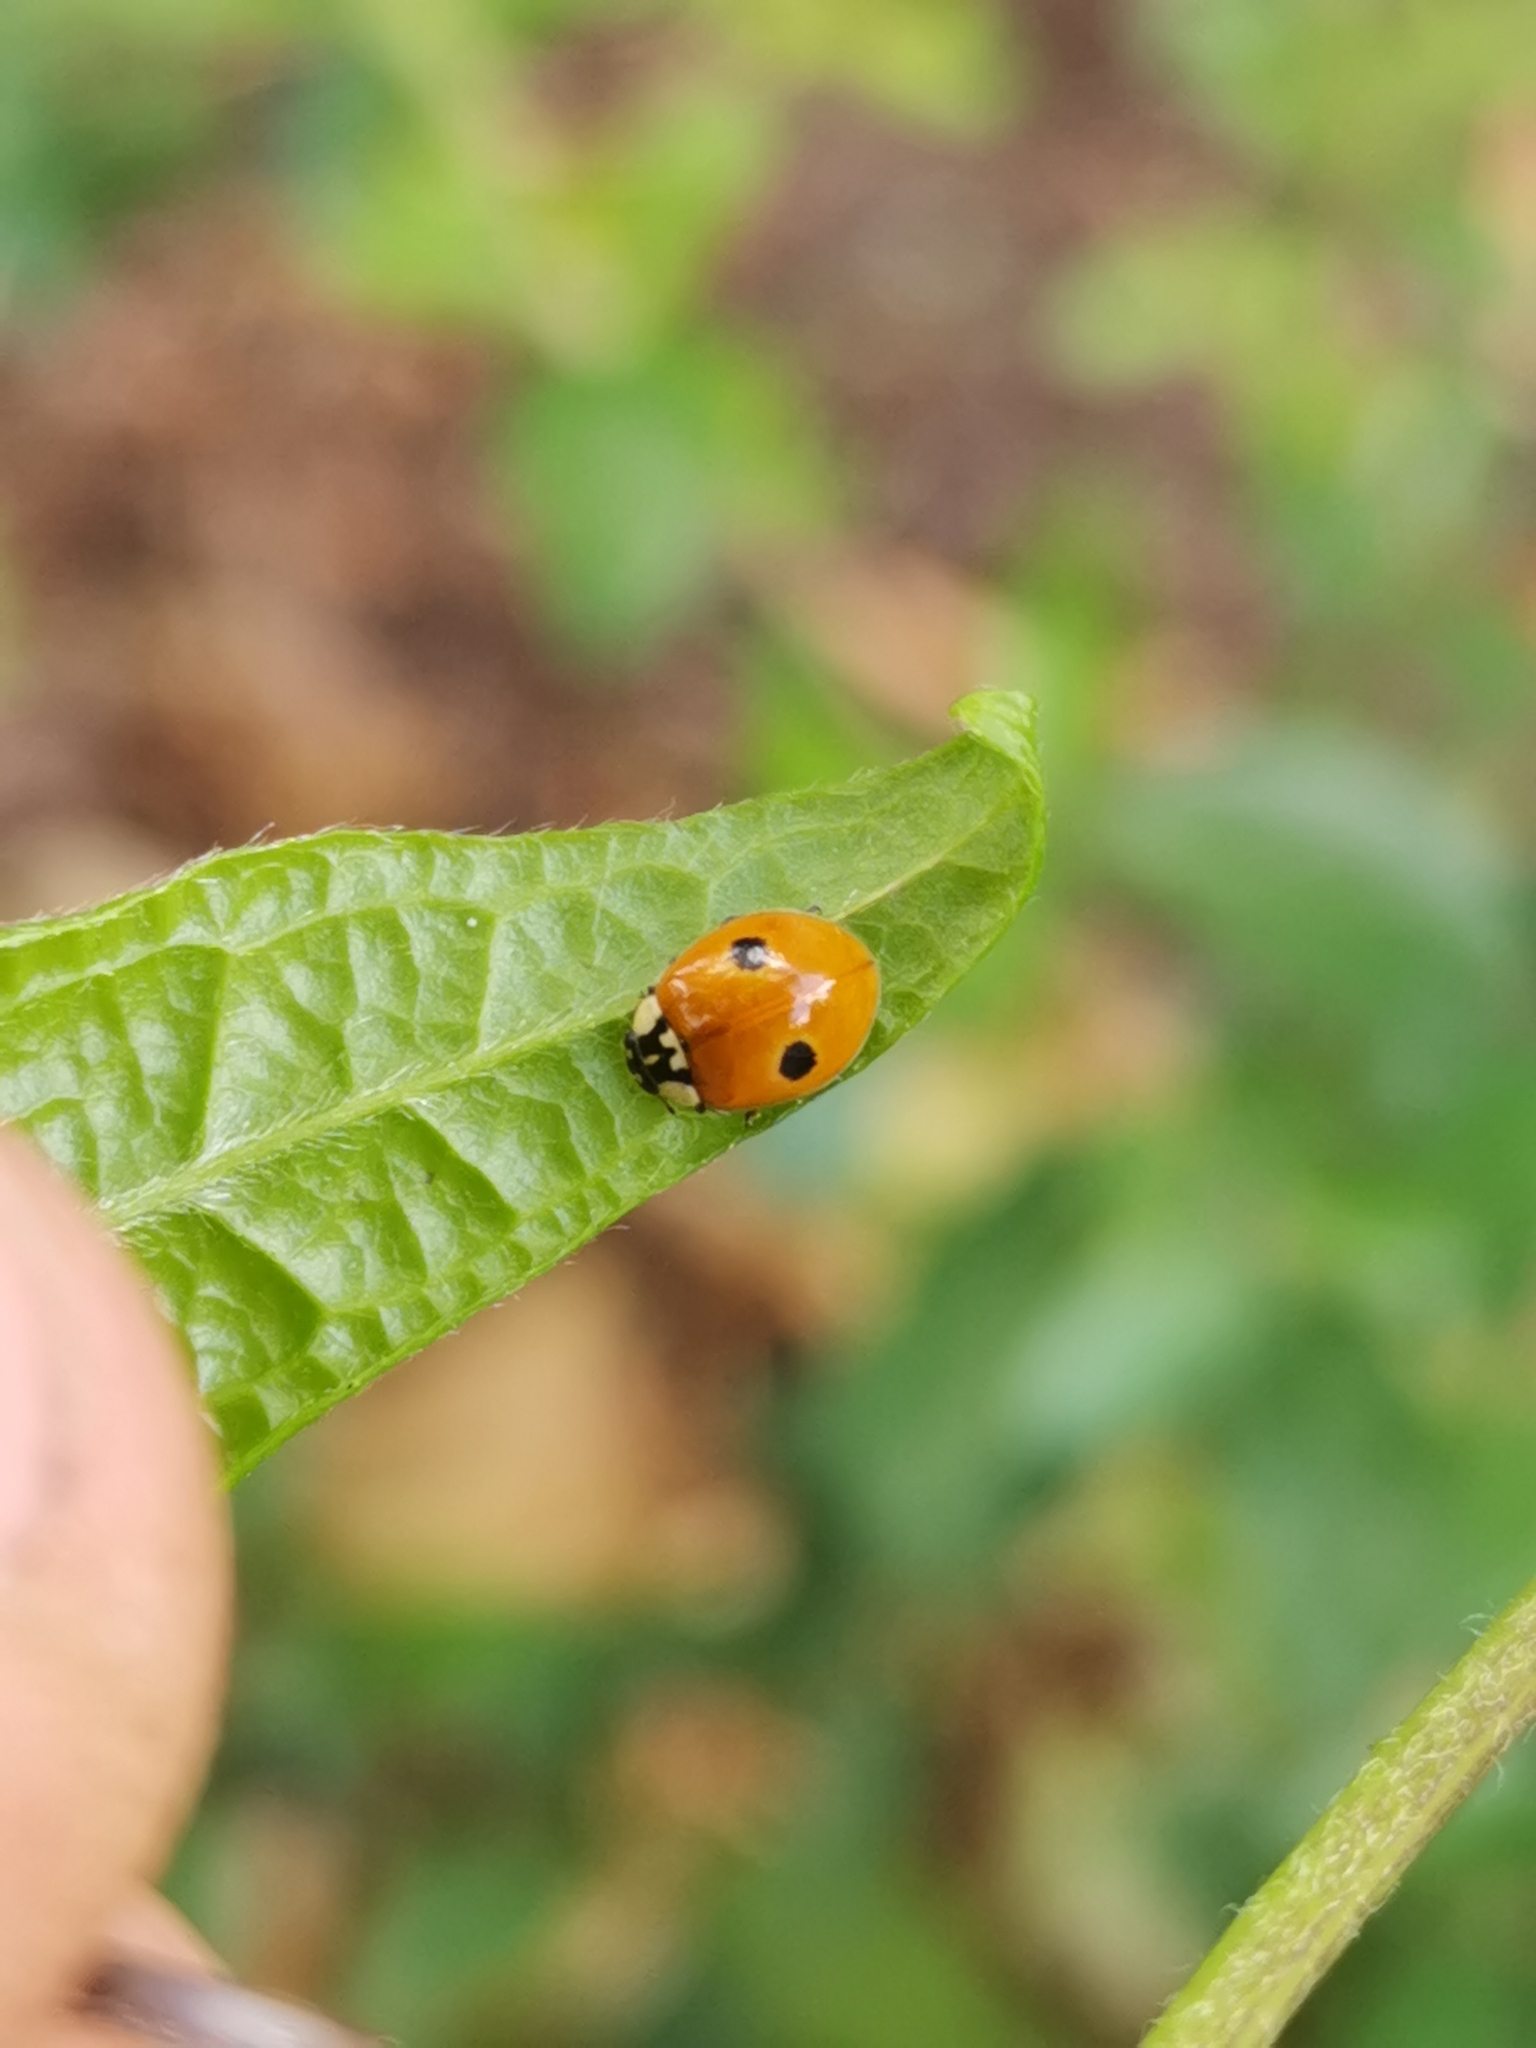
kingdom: Animalia
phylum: Arthropoda
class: Insecta
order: Coleoptera
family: Coccinellidae
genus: Adalia
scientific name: Adalia bipunctata
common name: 2-spot ladybird
